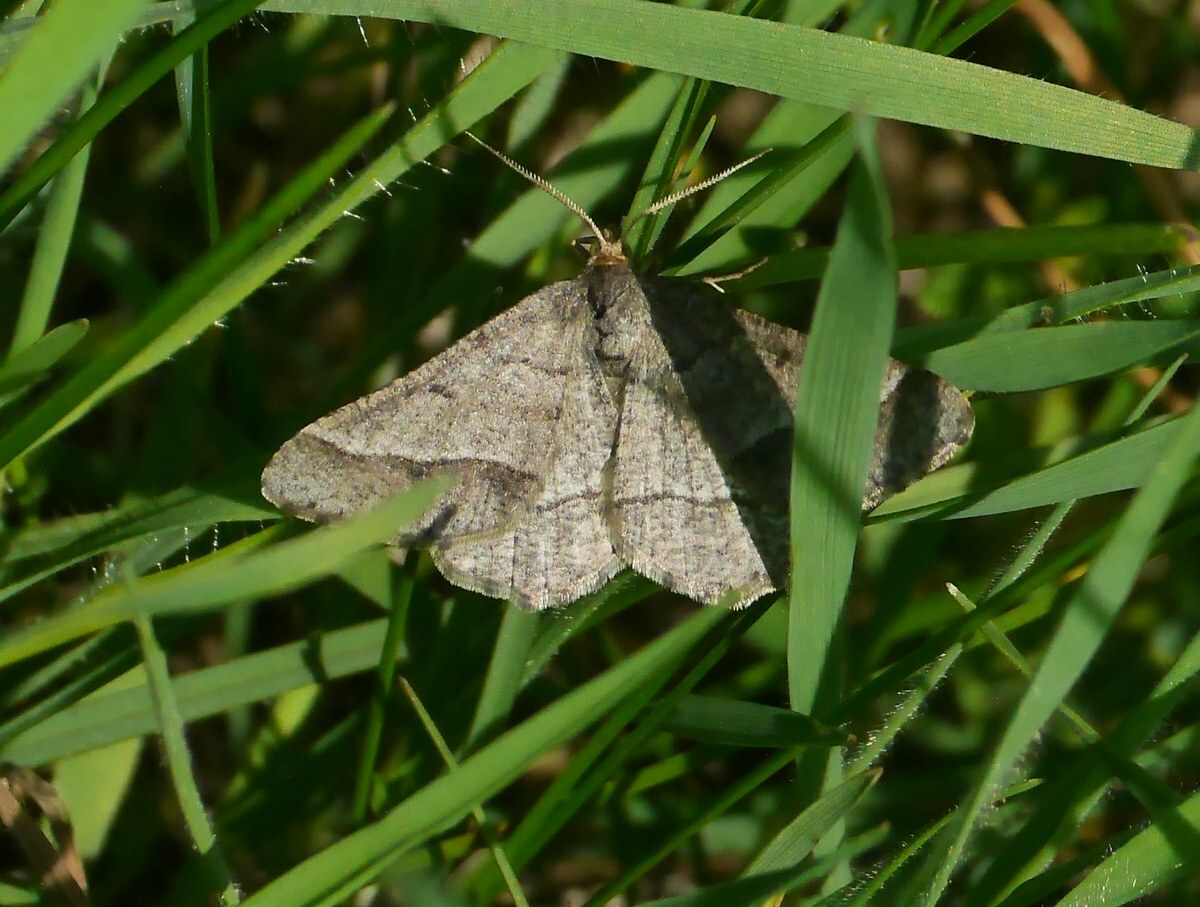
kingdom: Animalia
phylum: Arthropoda
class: Insecta
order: Lepidoptera
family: Geometridae
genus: Tephrina
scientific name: Tephrina murinaria
